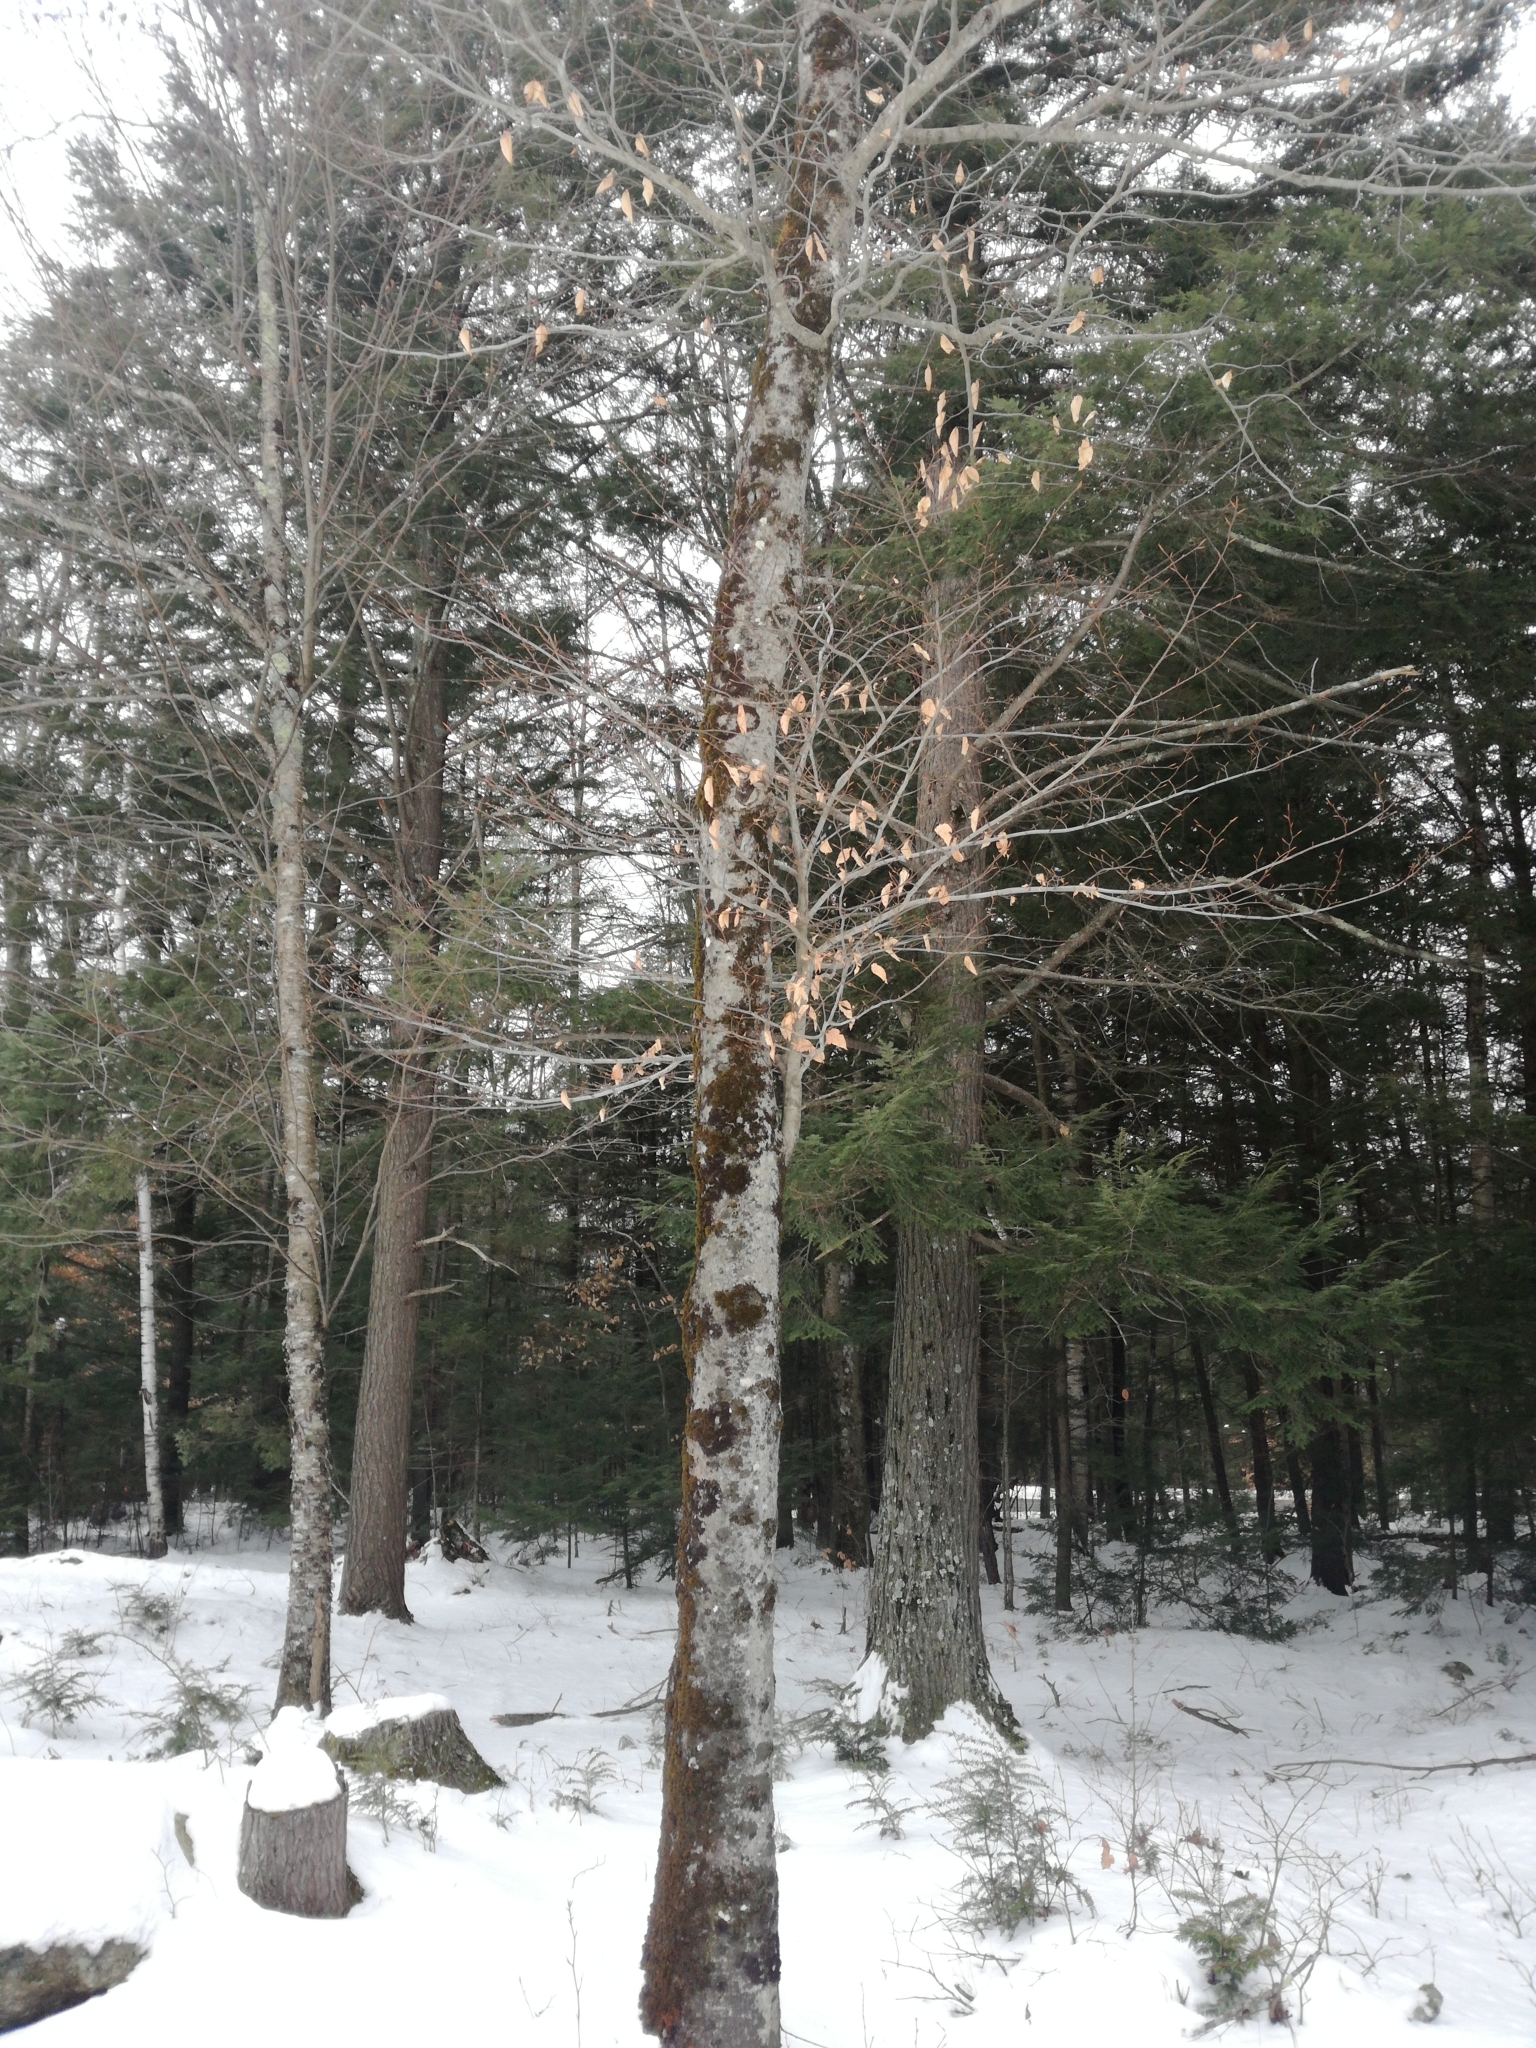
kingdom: Plantae
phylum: Tracheophyta
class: Magnoliopsida
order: Fagales
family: Fagaceae
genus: Fagus
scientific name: Fagus grandifolia
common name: American beech
